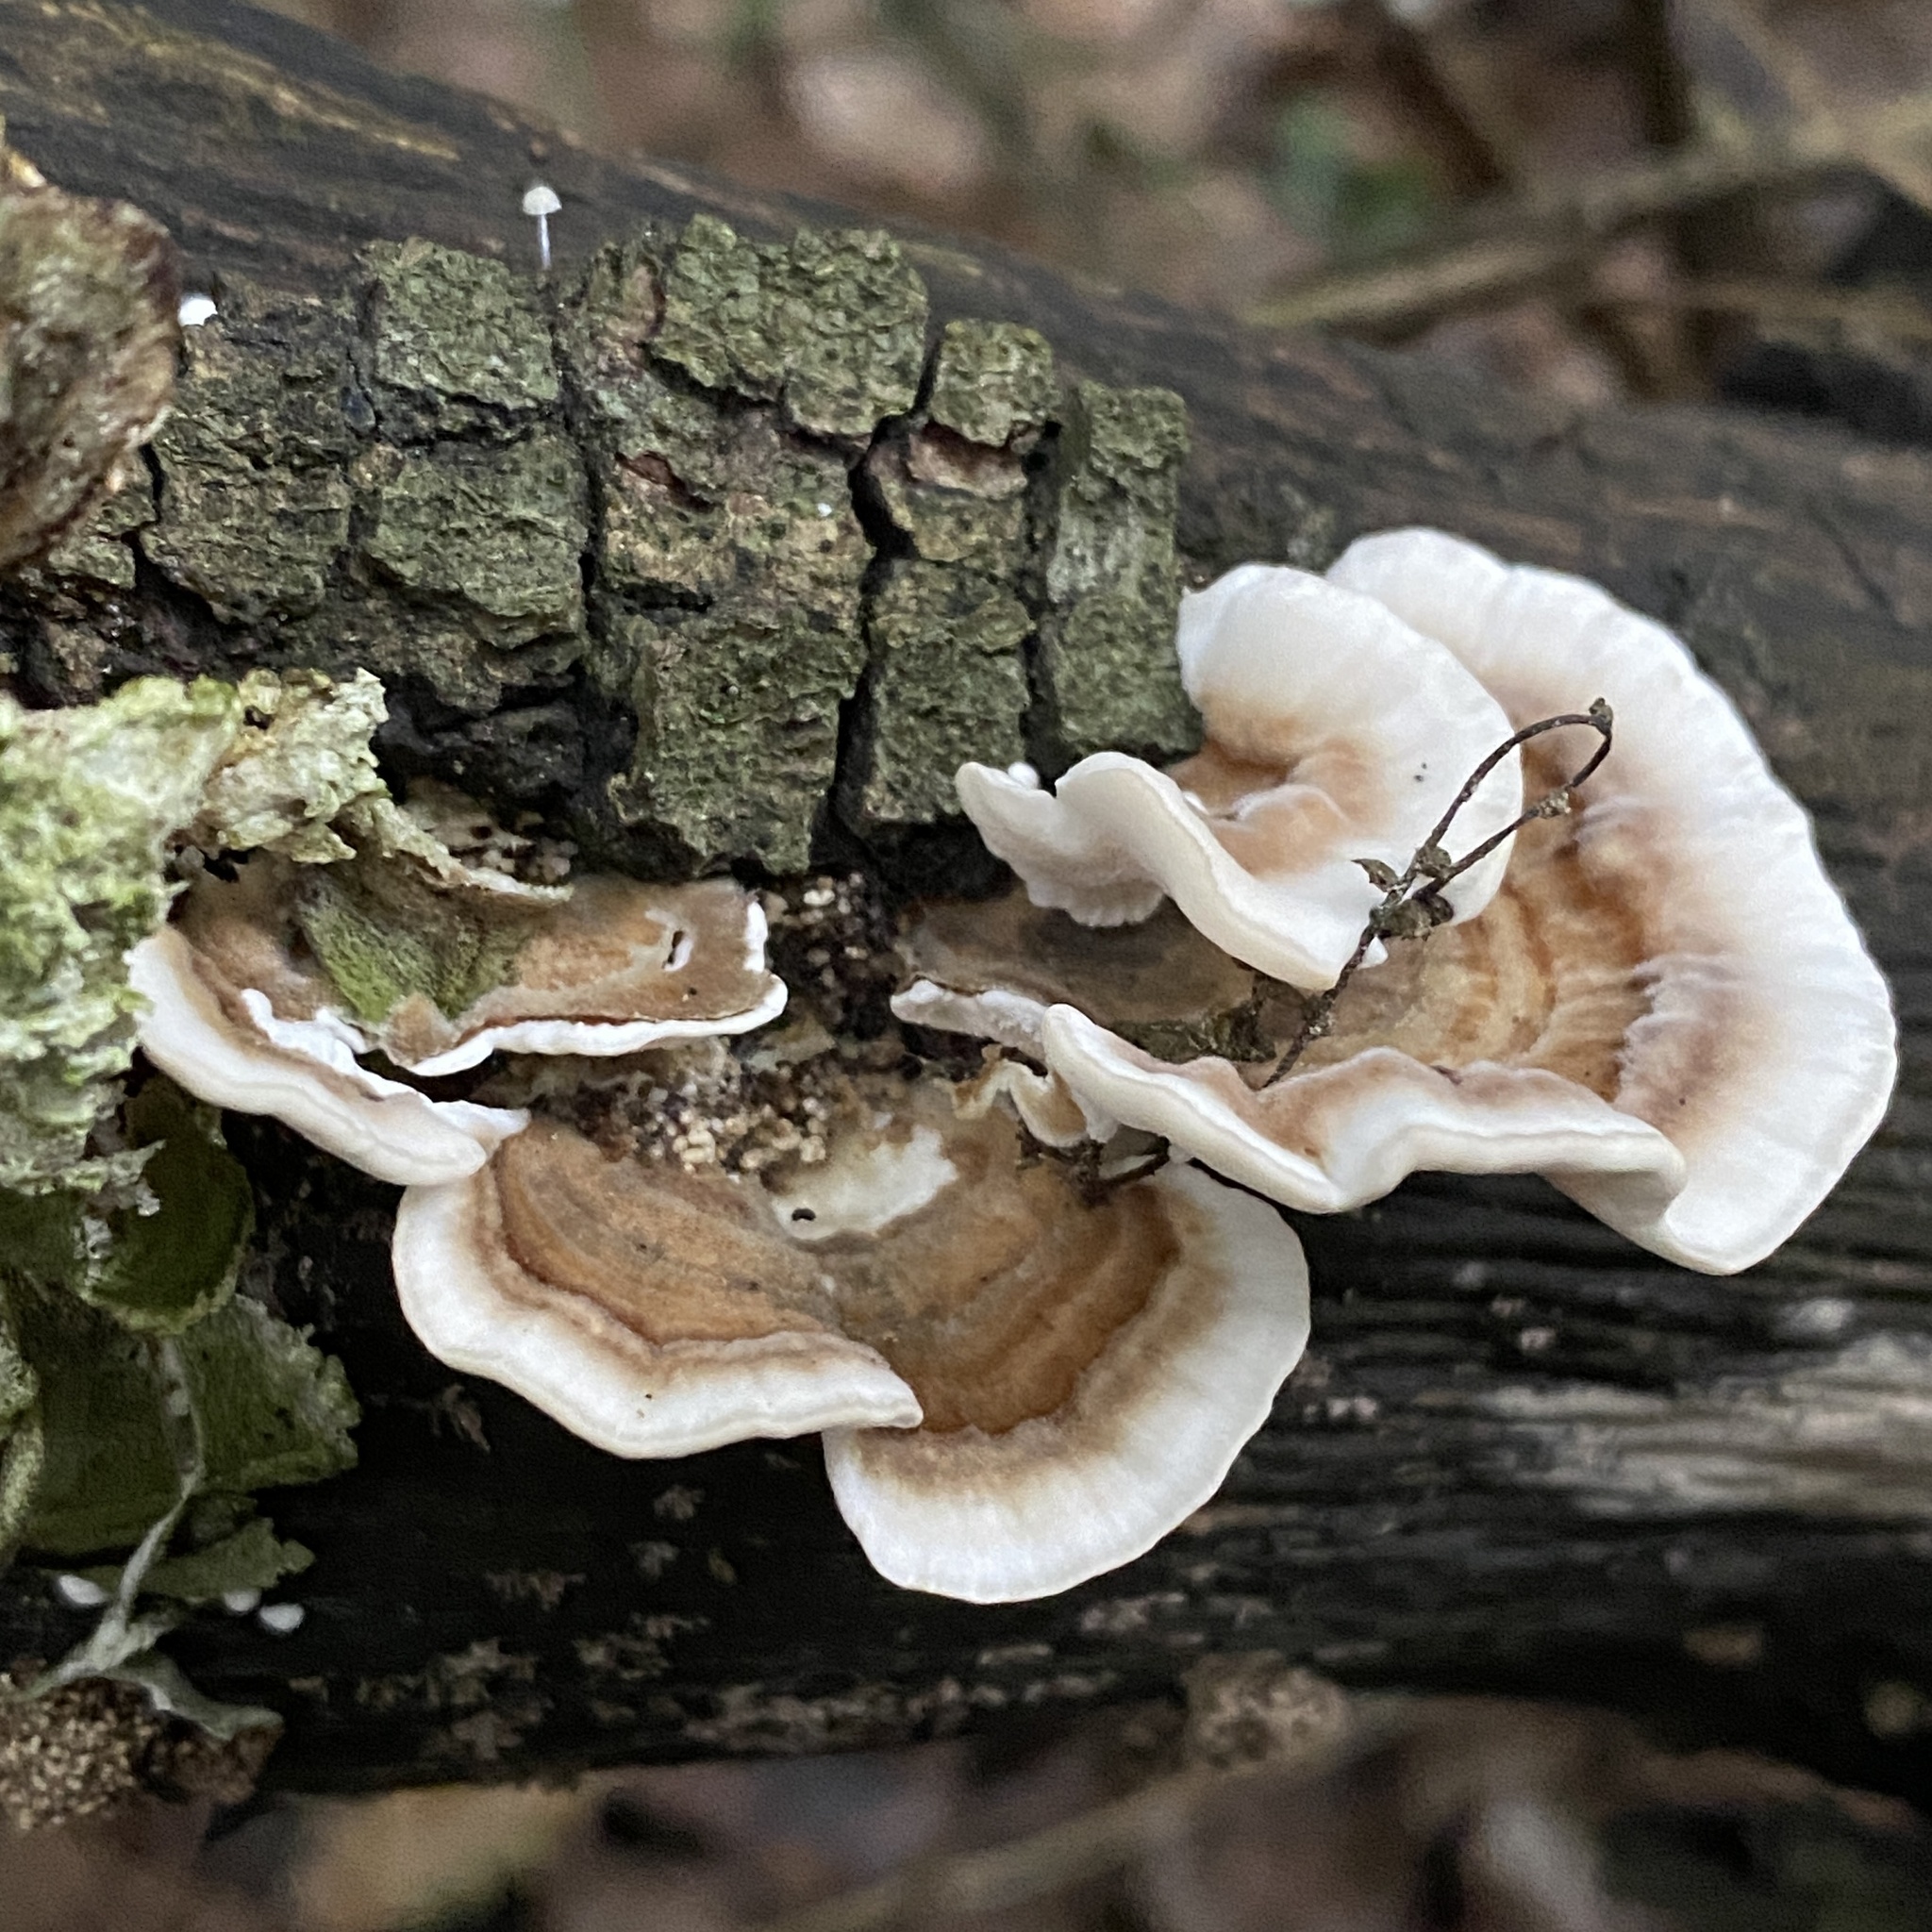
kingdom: Fungi
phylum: Basidiomycota
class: Agaricomycetes
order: Polyporales
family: Polyporaceae
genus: Trametes
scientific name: Trametes versicolor
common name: Turkeytail
